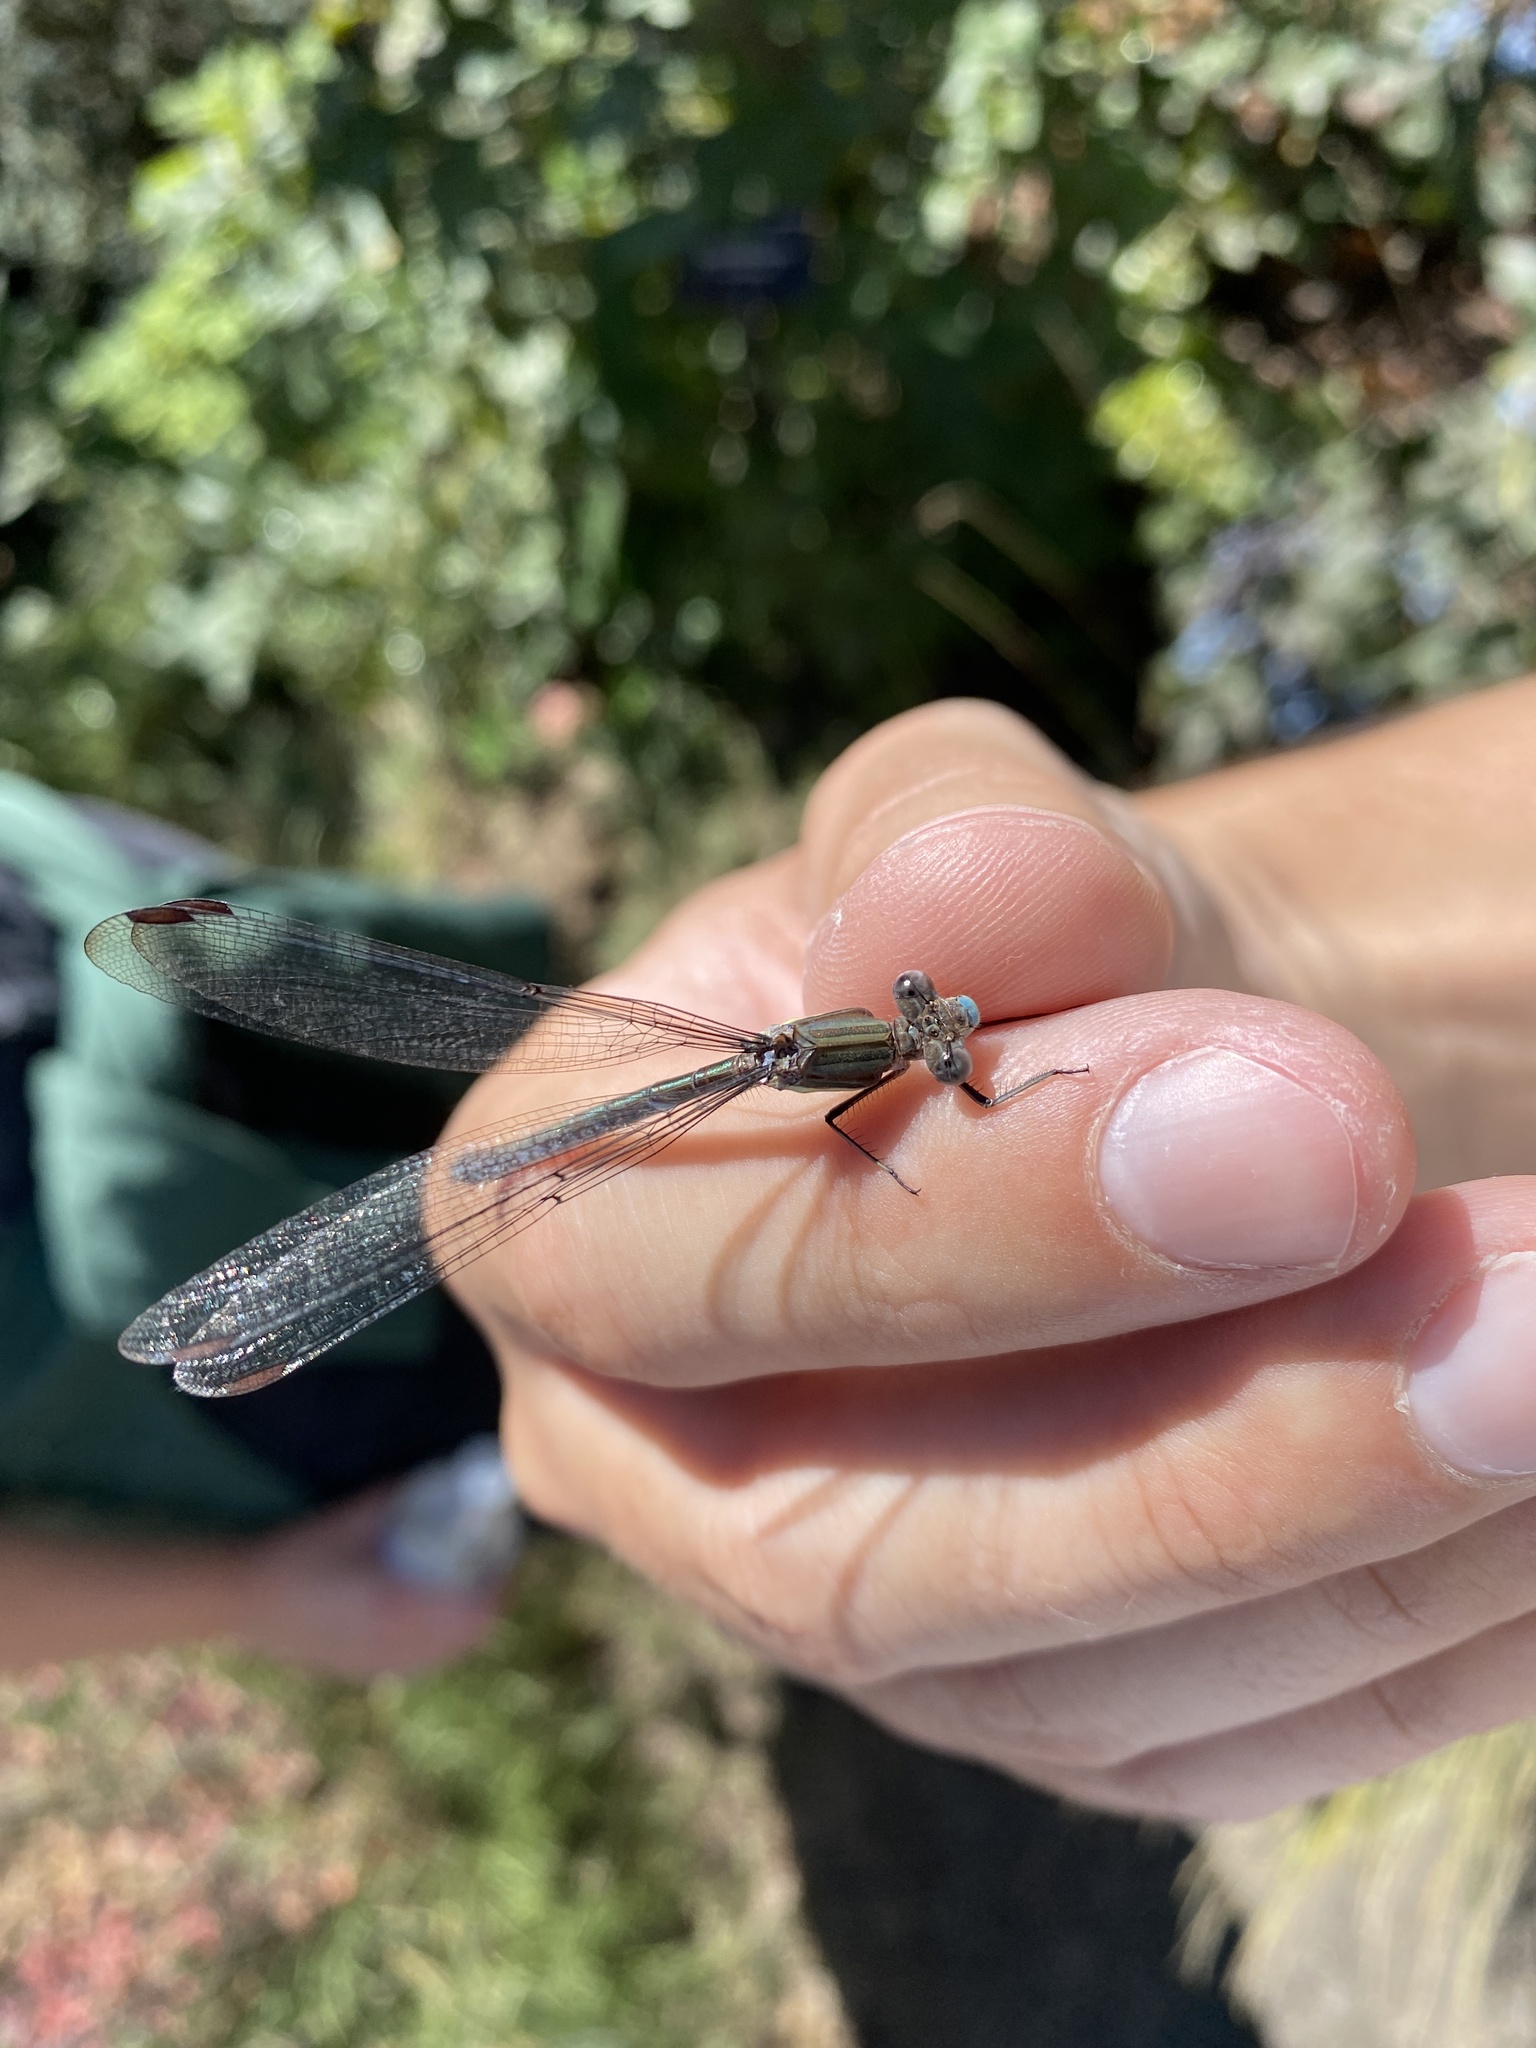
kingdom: Animalia
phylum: Arthropoda
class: Insecta
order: Odonata
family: Lestidae
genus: Archilestes
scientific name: Archilestes grandis
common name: Great spreadwing
